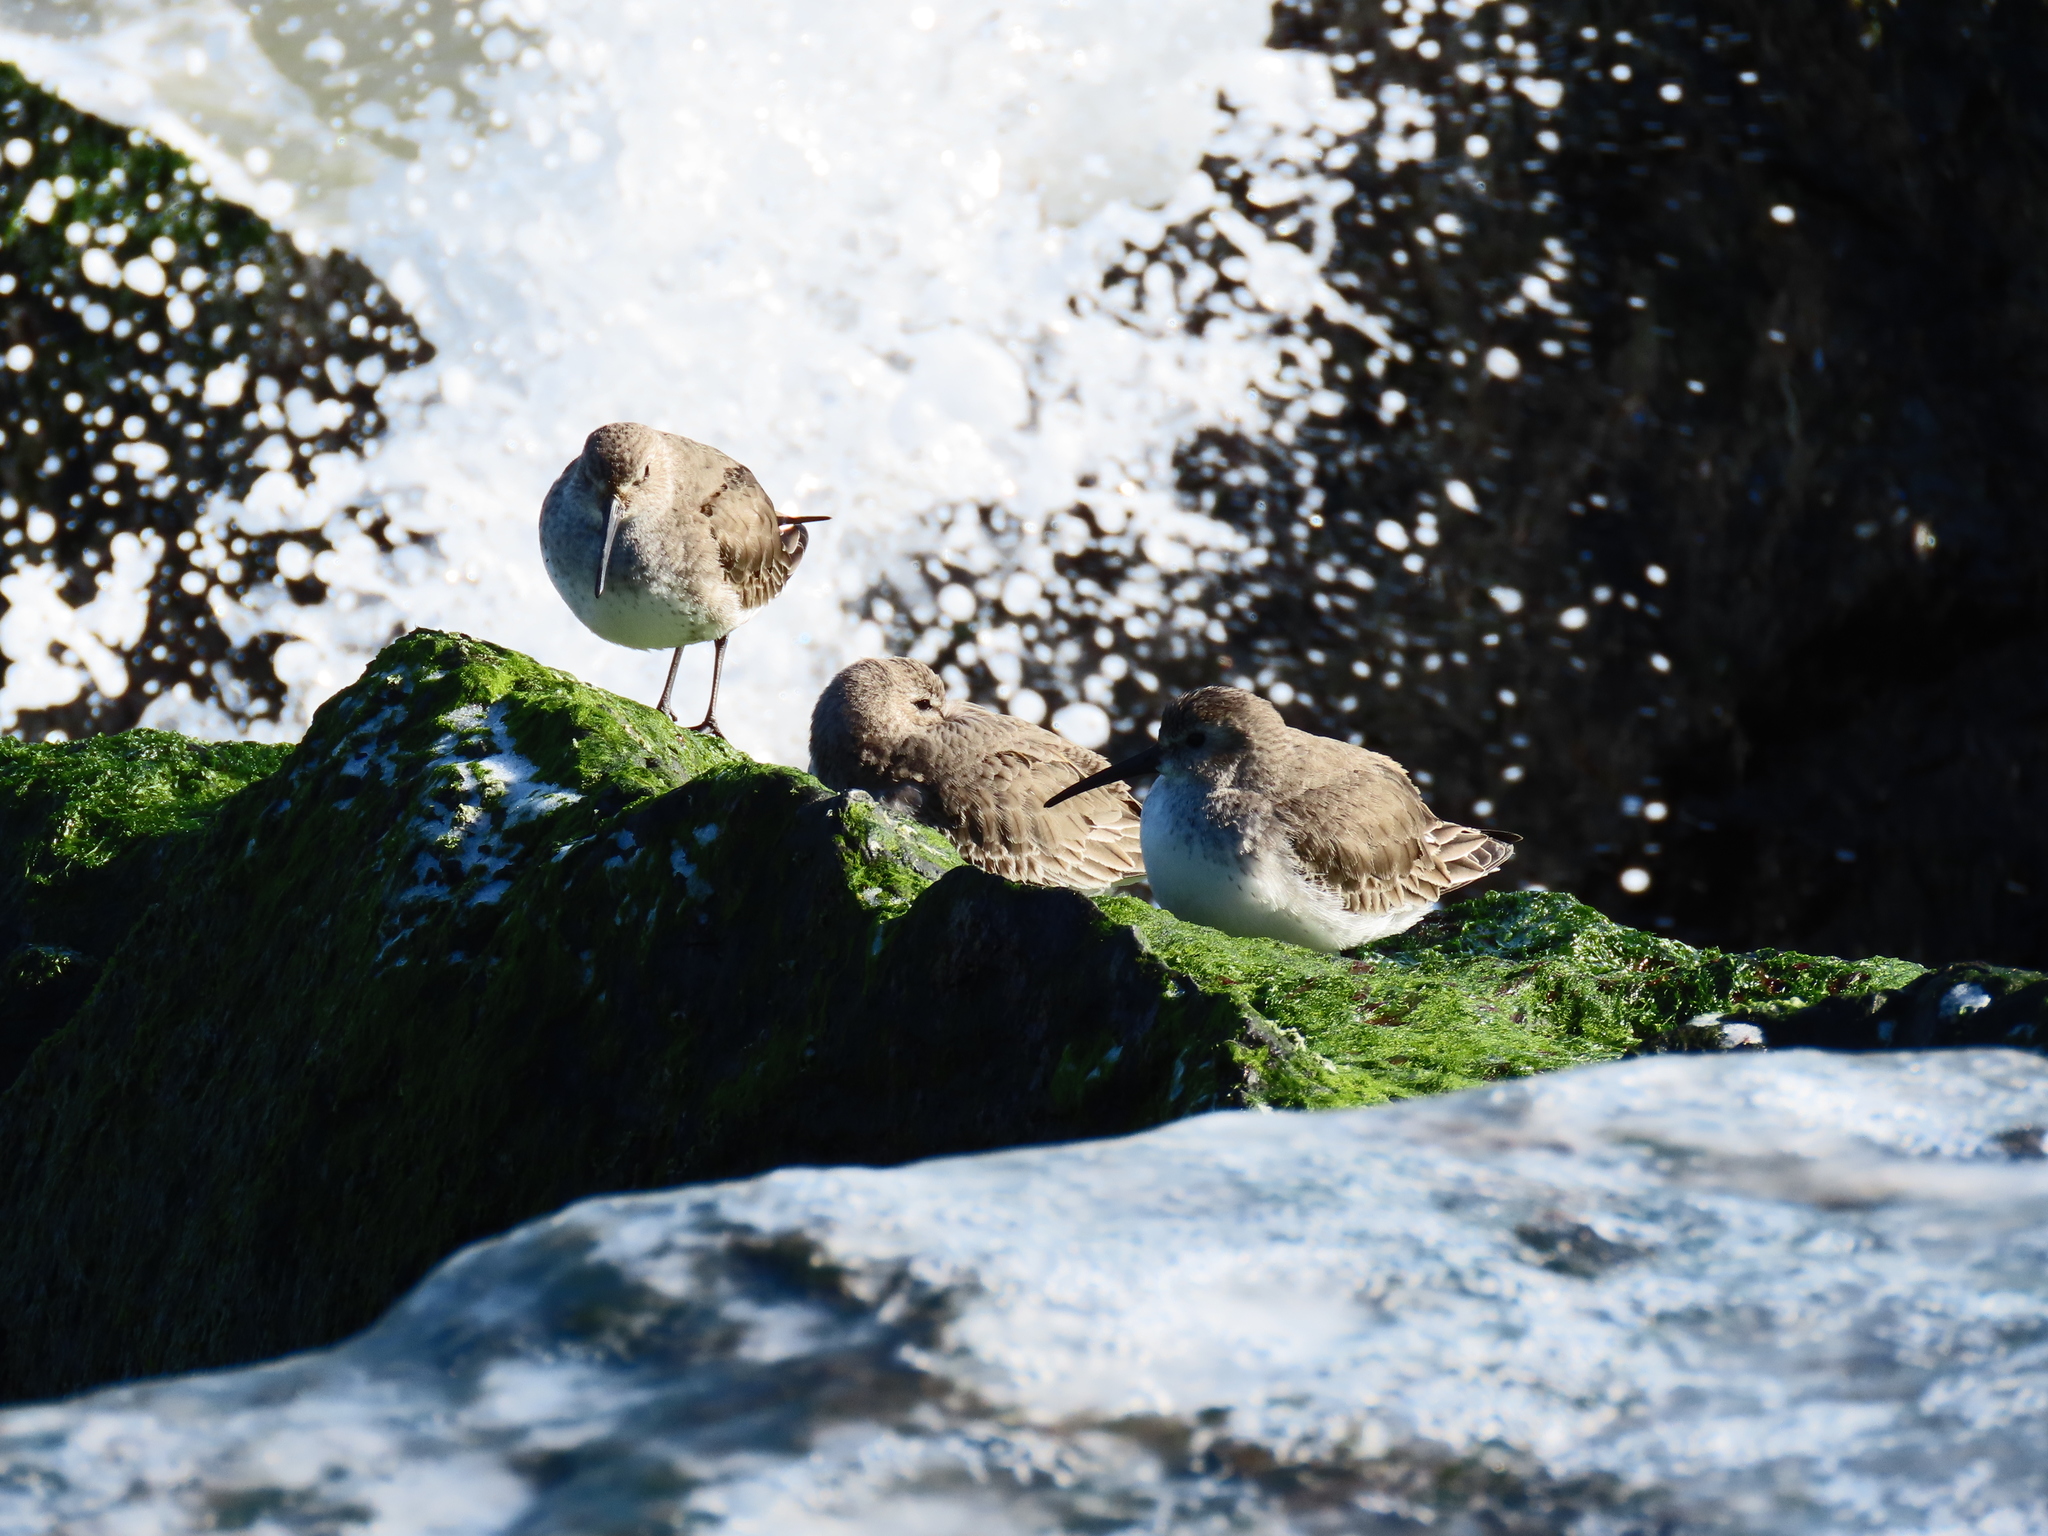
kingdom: Animalia
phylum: Chordata
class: Aves
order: Charadriiformes
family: Scolopacidae
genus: Calidris
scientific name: Calidris alpina
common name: Dunlin
